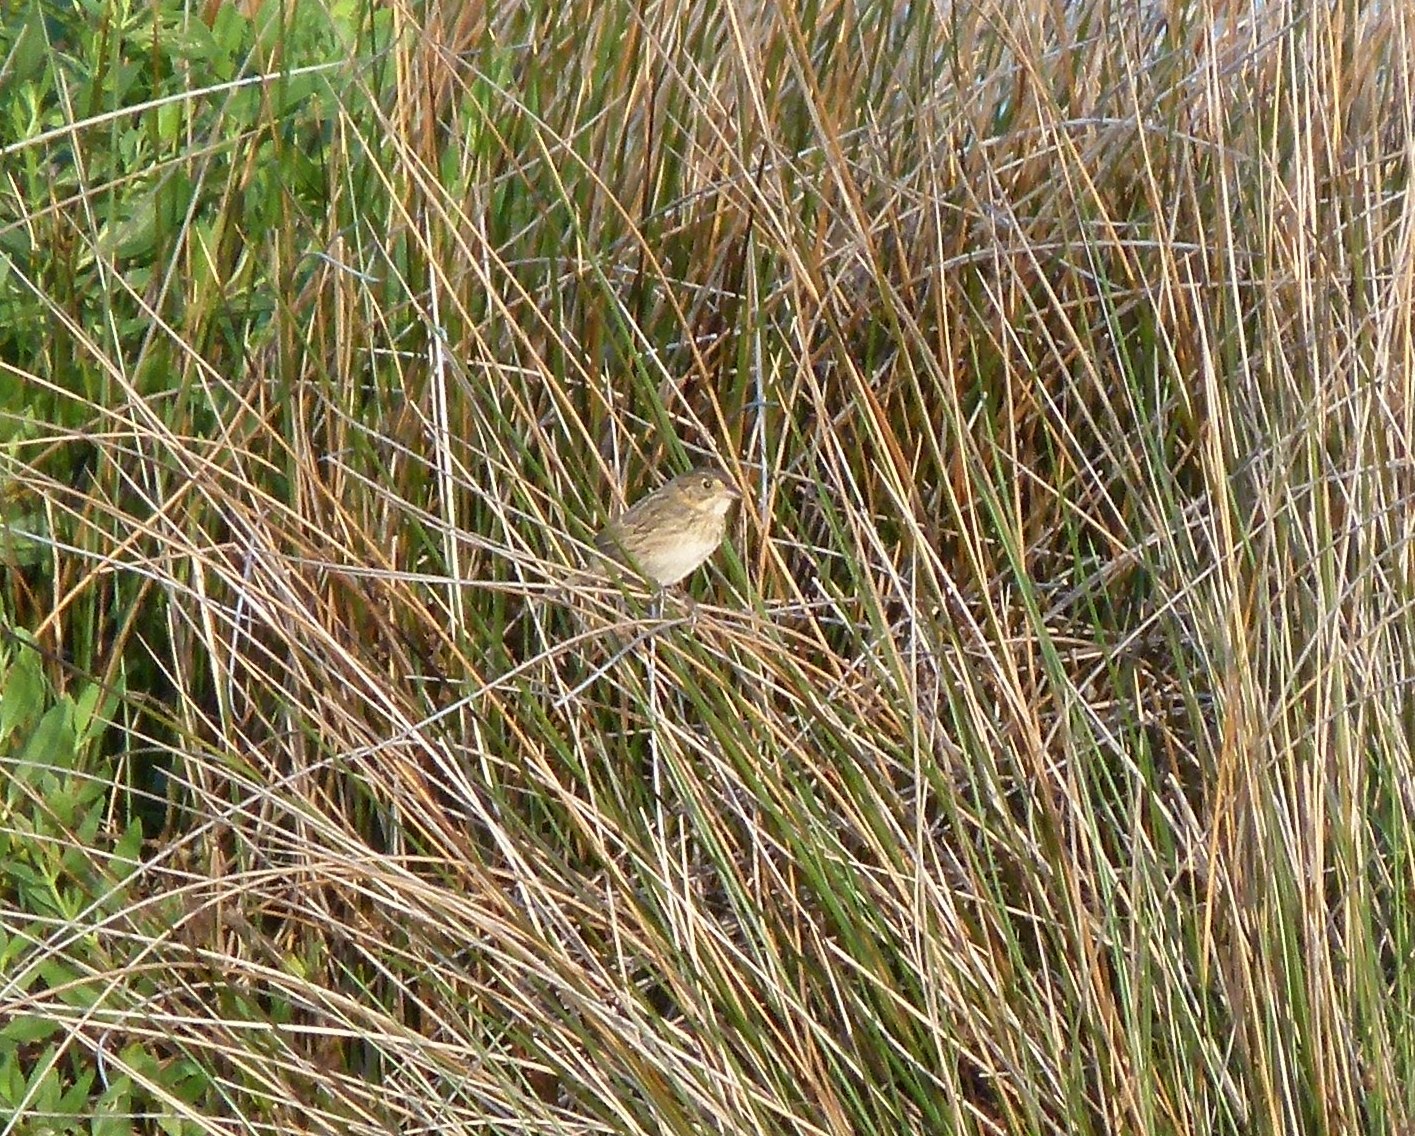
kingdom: Animalia
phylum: Chordata
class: Aves
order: Passeriformes
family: Passerellidae
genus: Ammospiza
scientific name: Ammospiza caudacuta
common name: Saltmarsh sparrow
